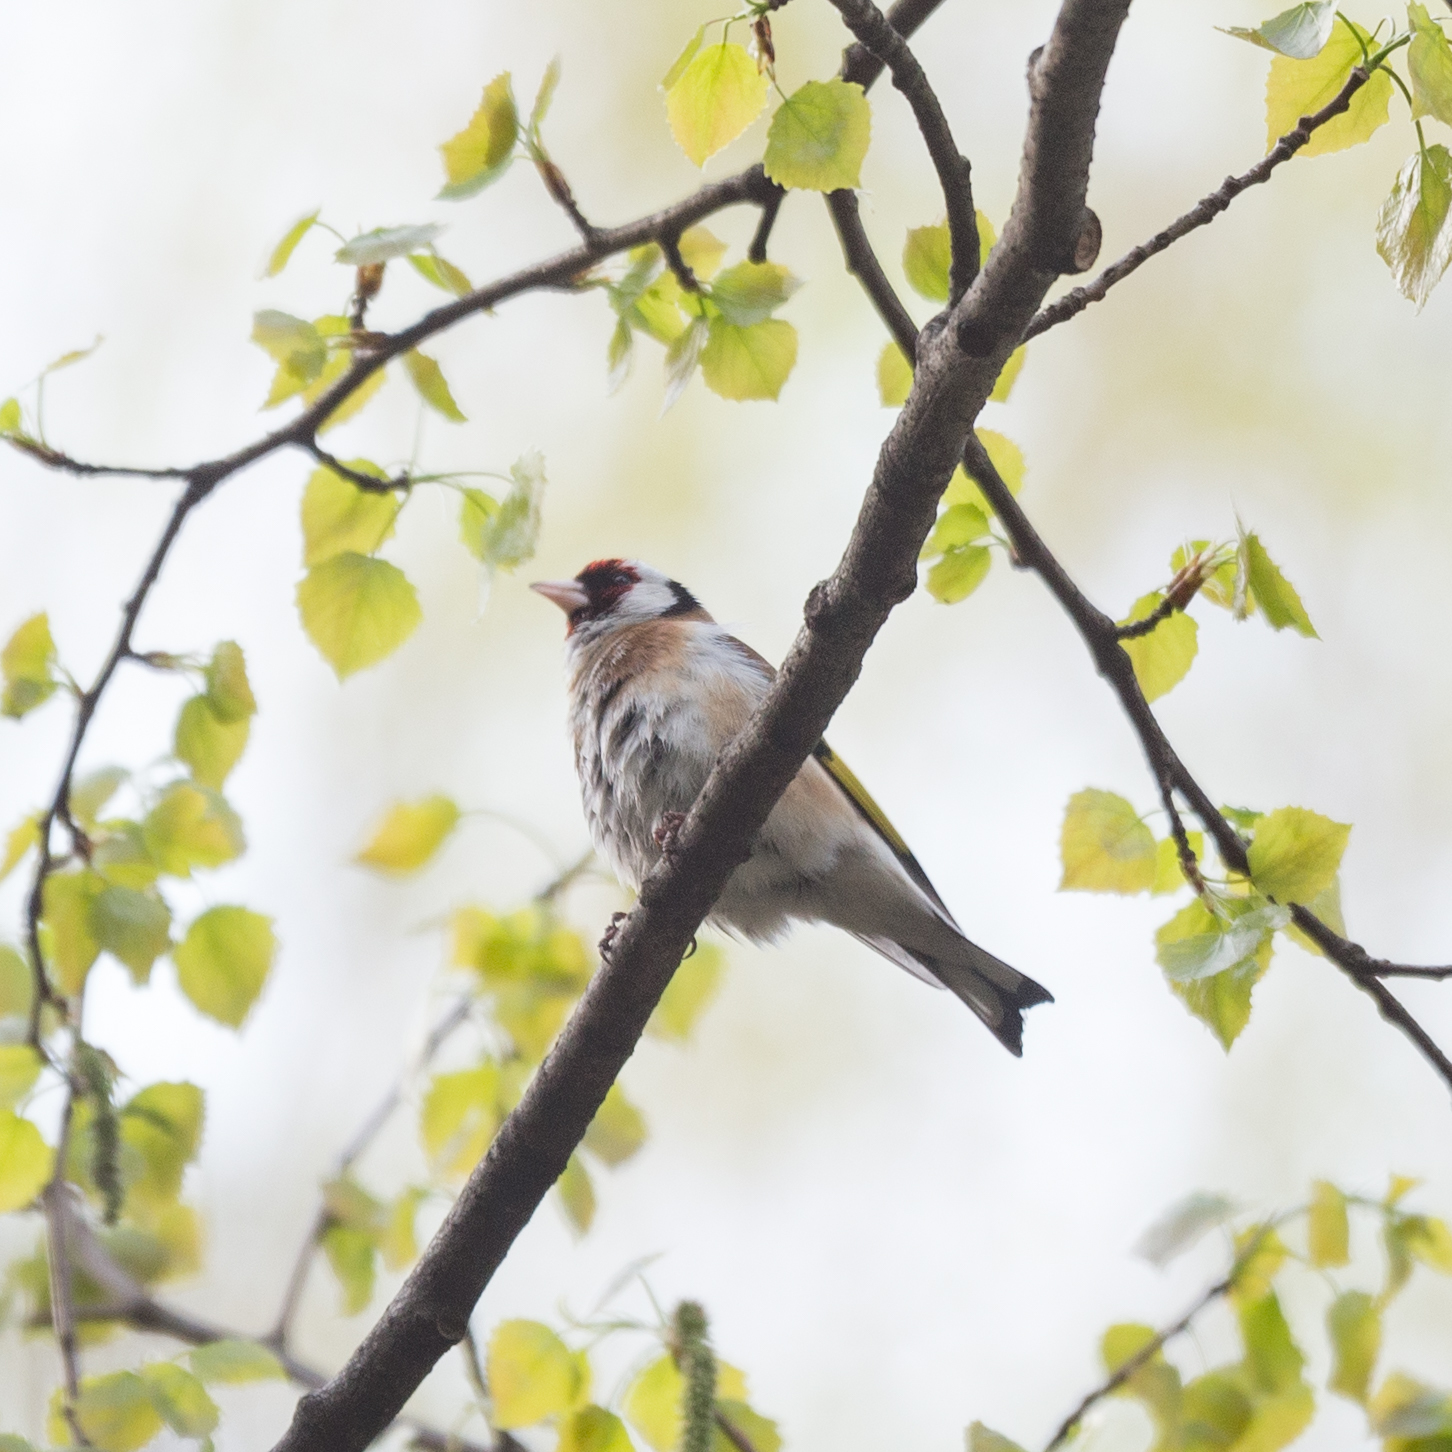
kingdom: Animalia
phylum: Chordata
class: Aves
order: Passeriformes
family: Fringillidae
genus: Carduelis
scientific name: Carduelis carduelis
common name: European goldfinch
